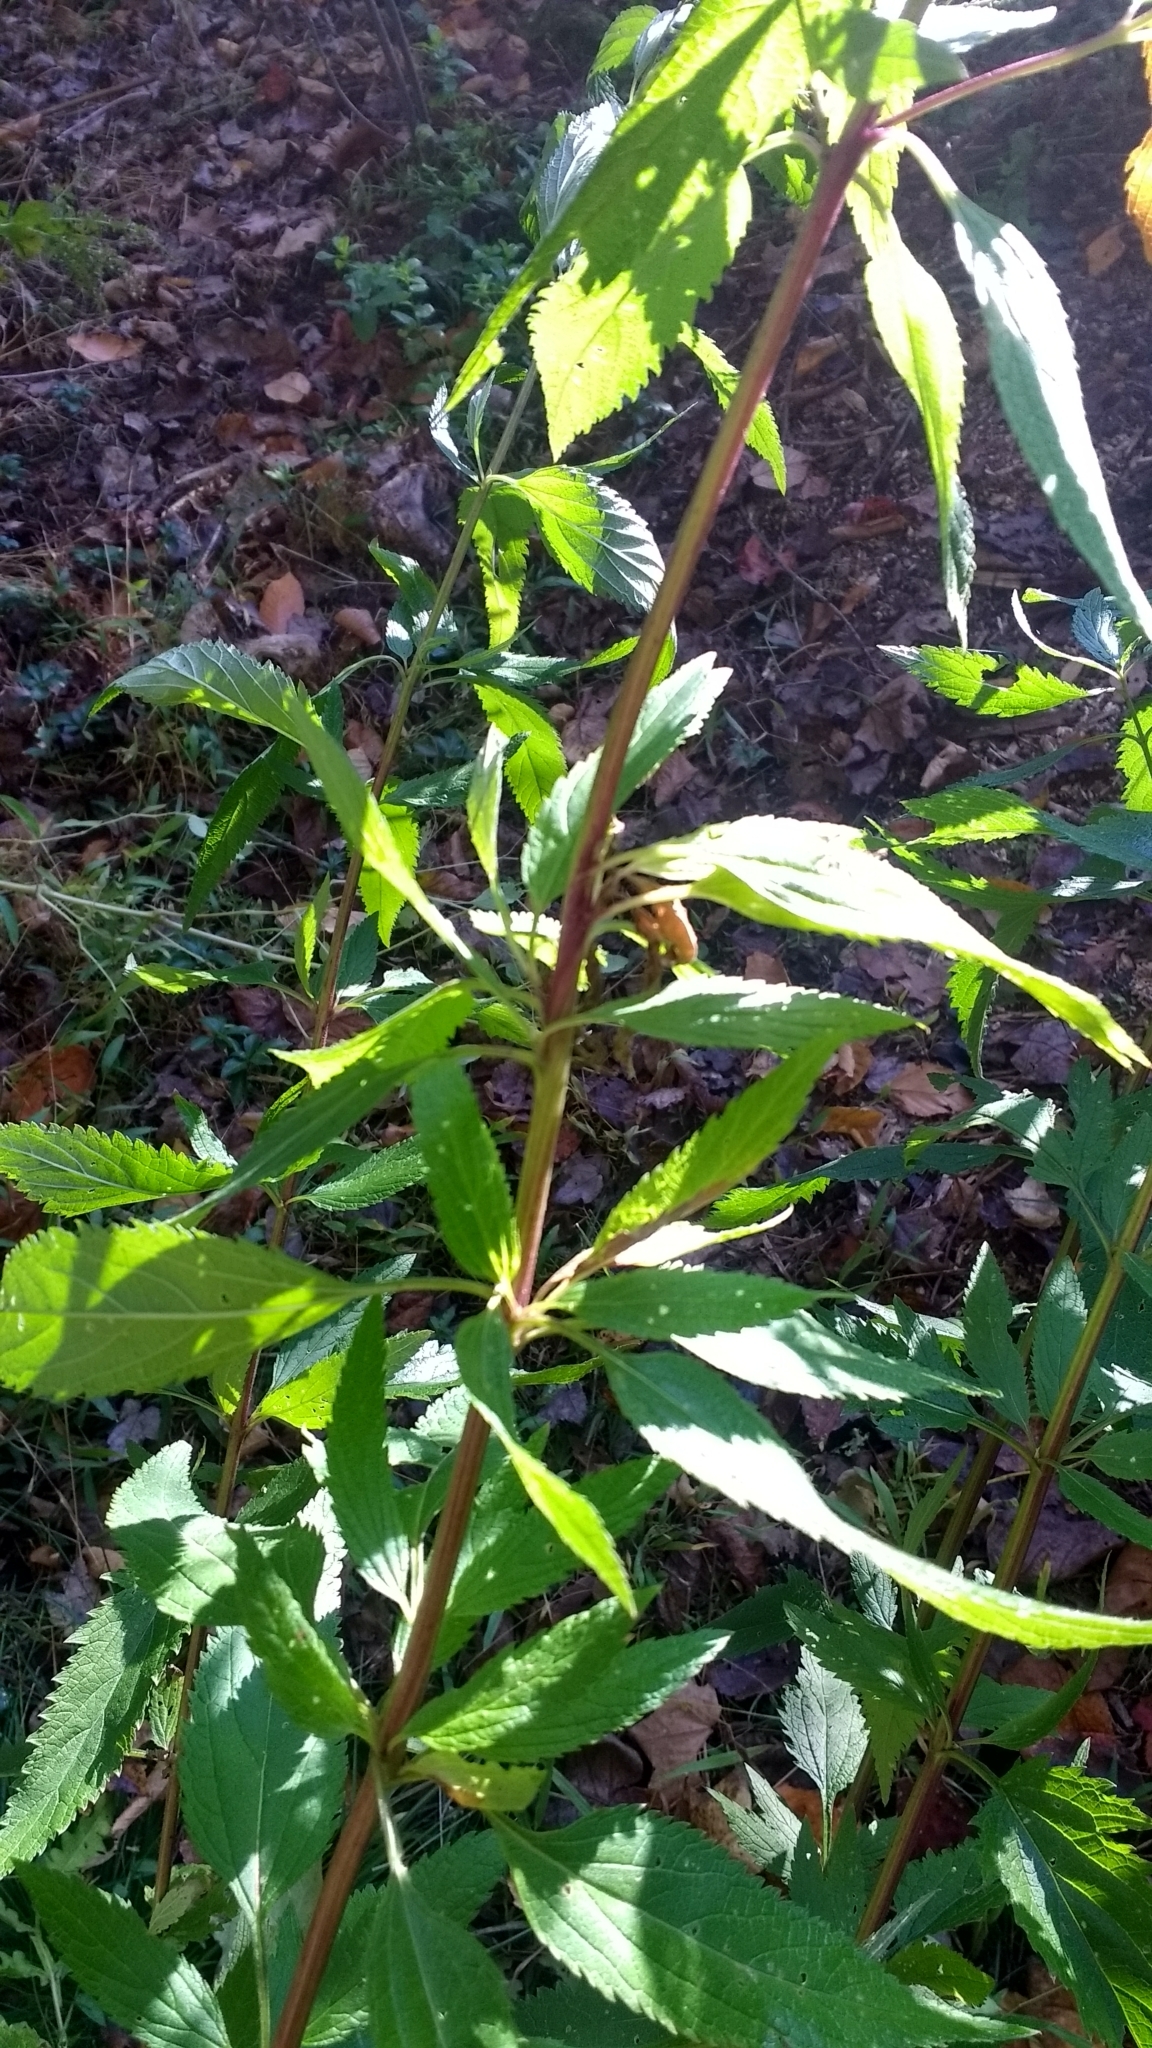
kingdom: Plantae
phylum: Tracheophyta
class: Magnoliopsida
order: Lamiales
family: Verbenaceae
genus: Verbena
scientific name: Verbena hastata
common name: American blue vervain
